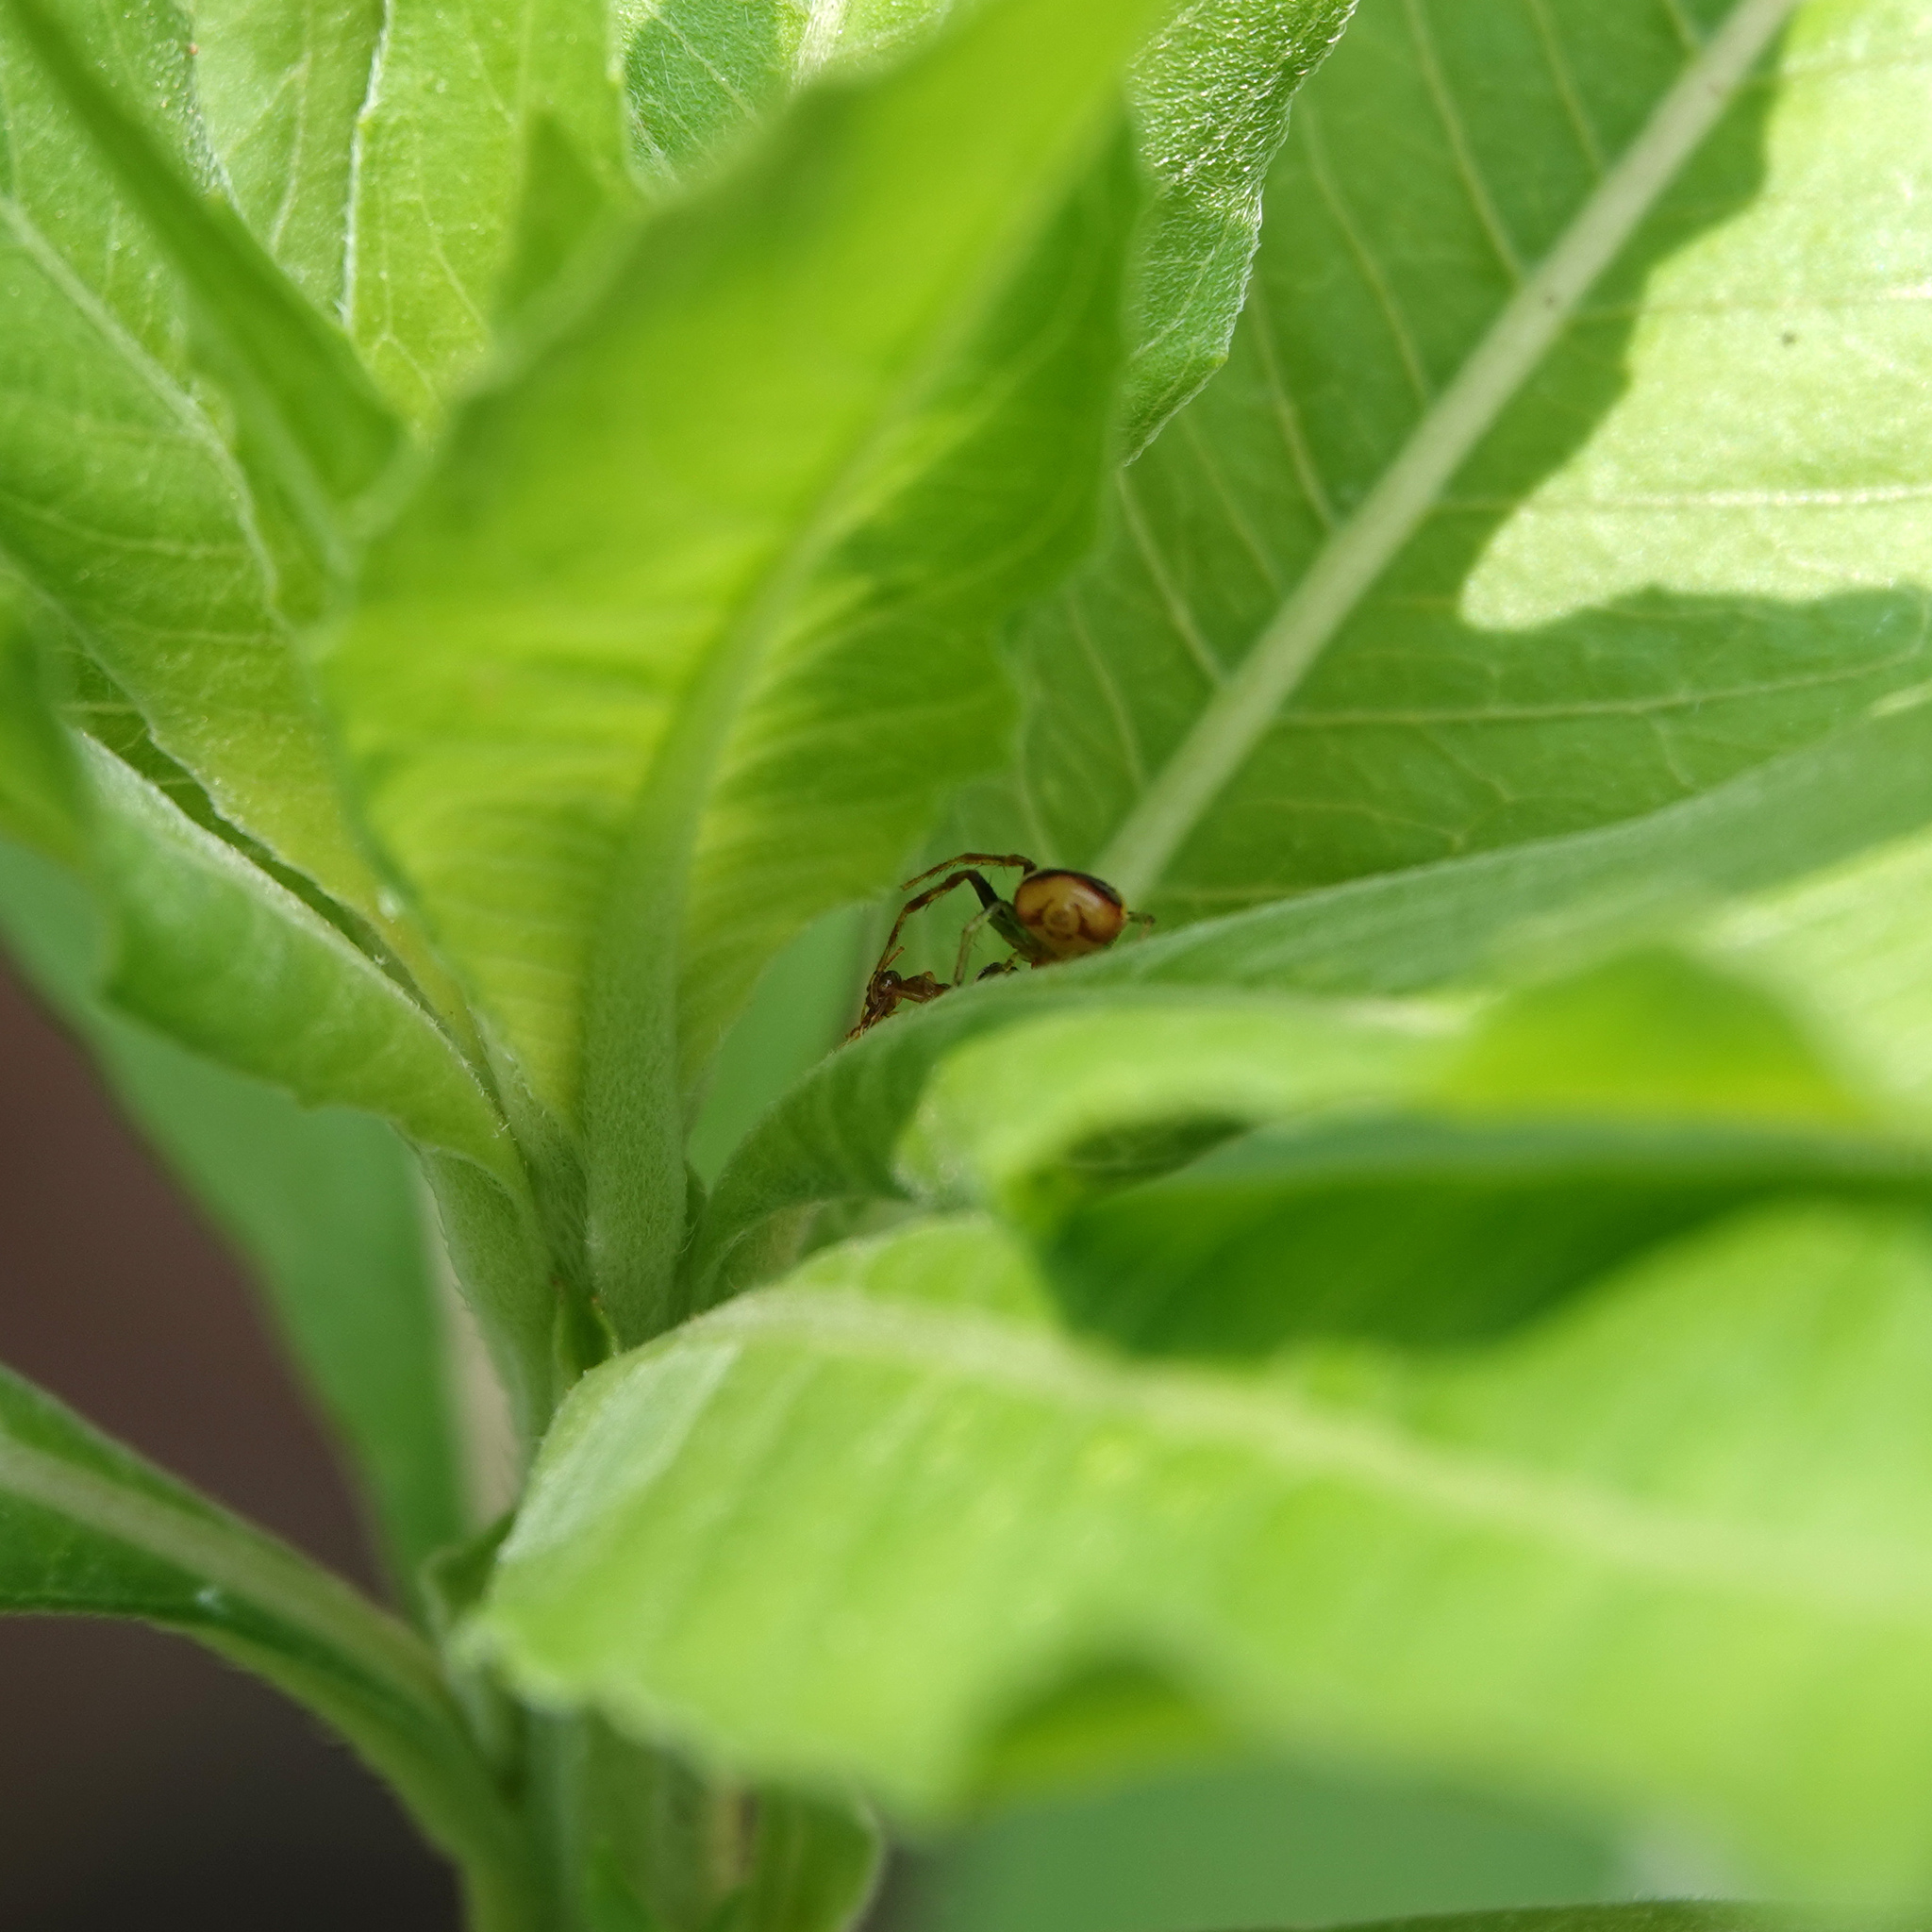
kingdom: Animalia
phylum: Arthropoda
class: Arachnida
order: Araneae
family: Thomisidae
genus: Synema
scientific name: Synema parvulum
